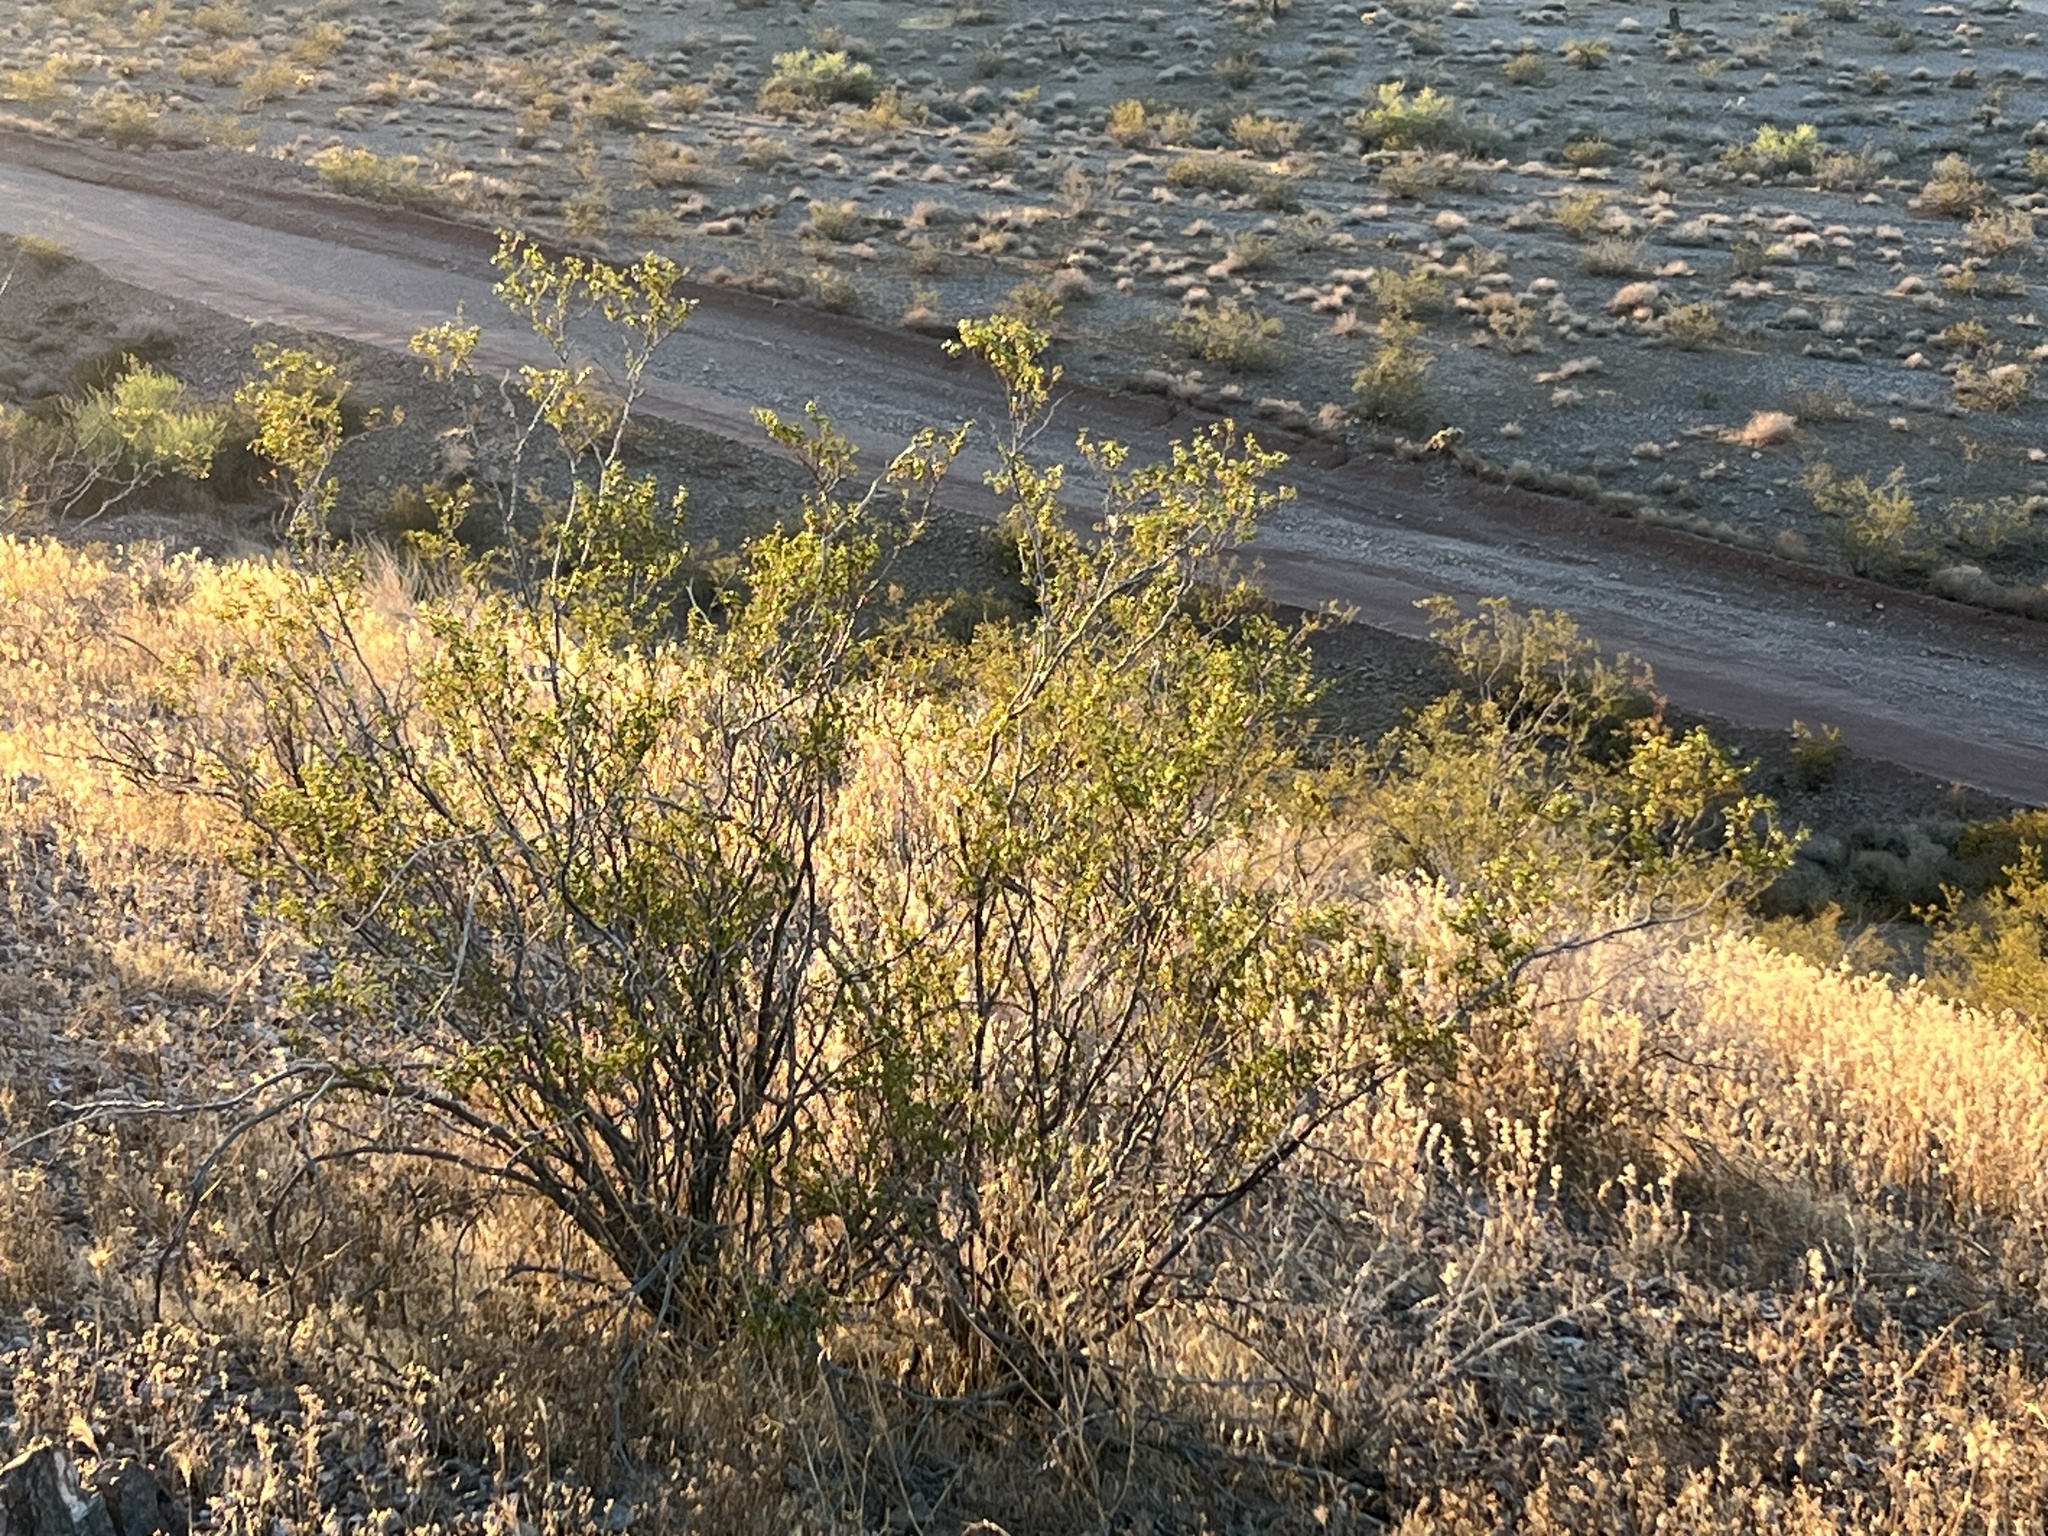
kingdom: Plantae
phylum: Tracheophyta
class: Magnoliopsida
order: Zygophyllales
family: Zygophyllaceae
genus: Larrea
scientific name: Larrea tridentata
